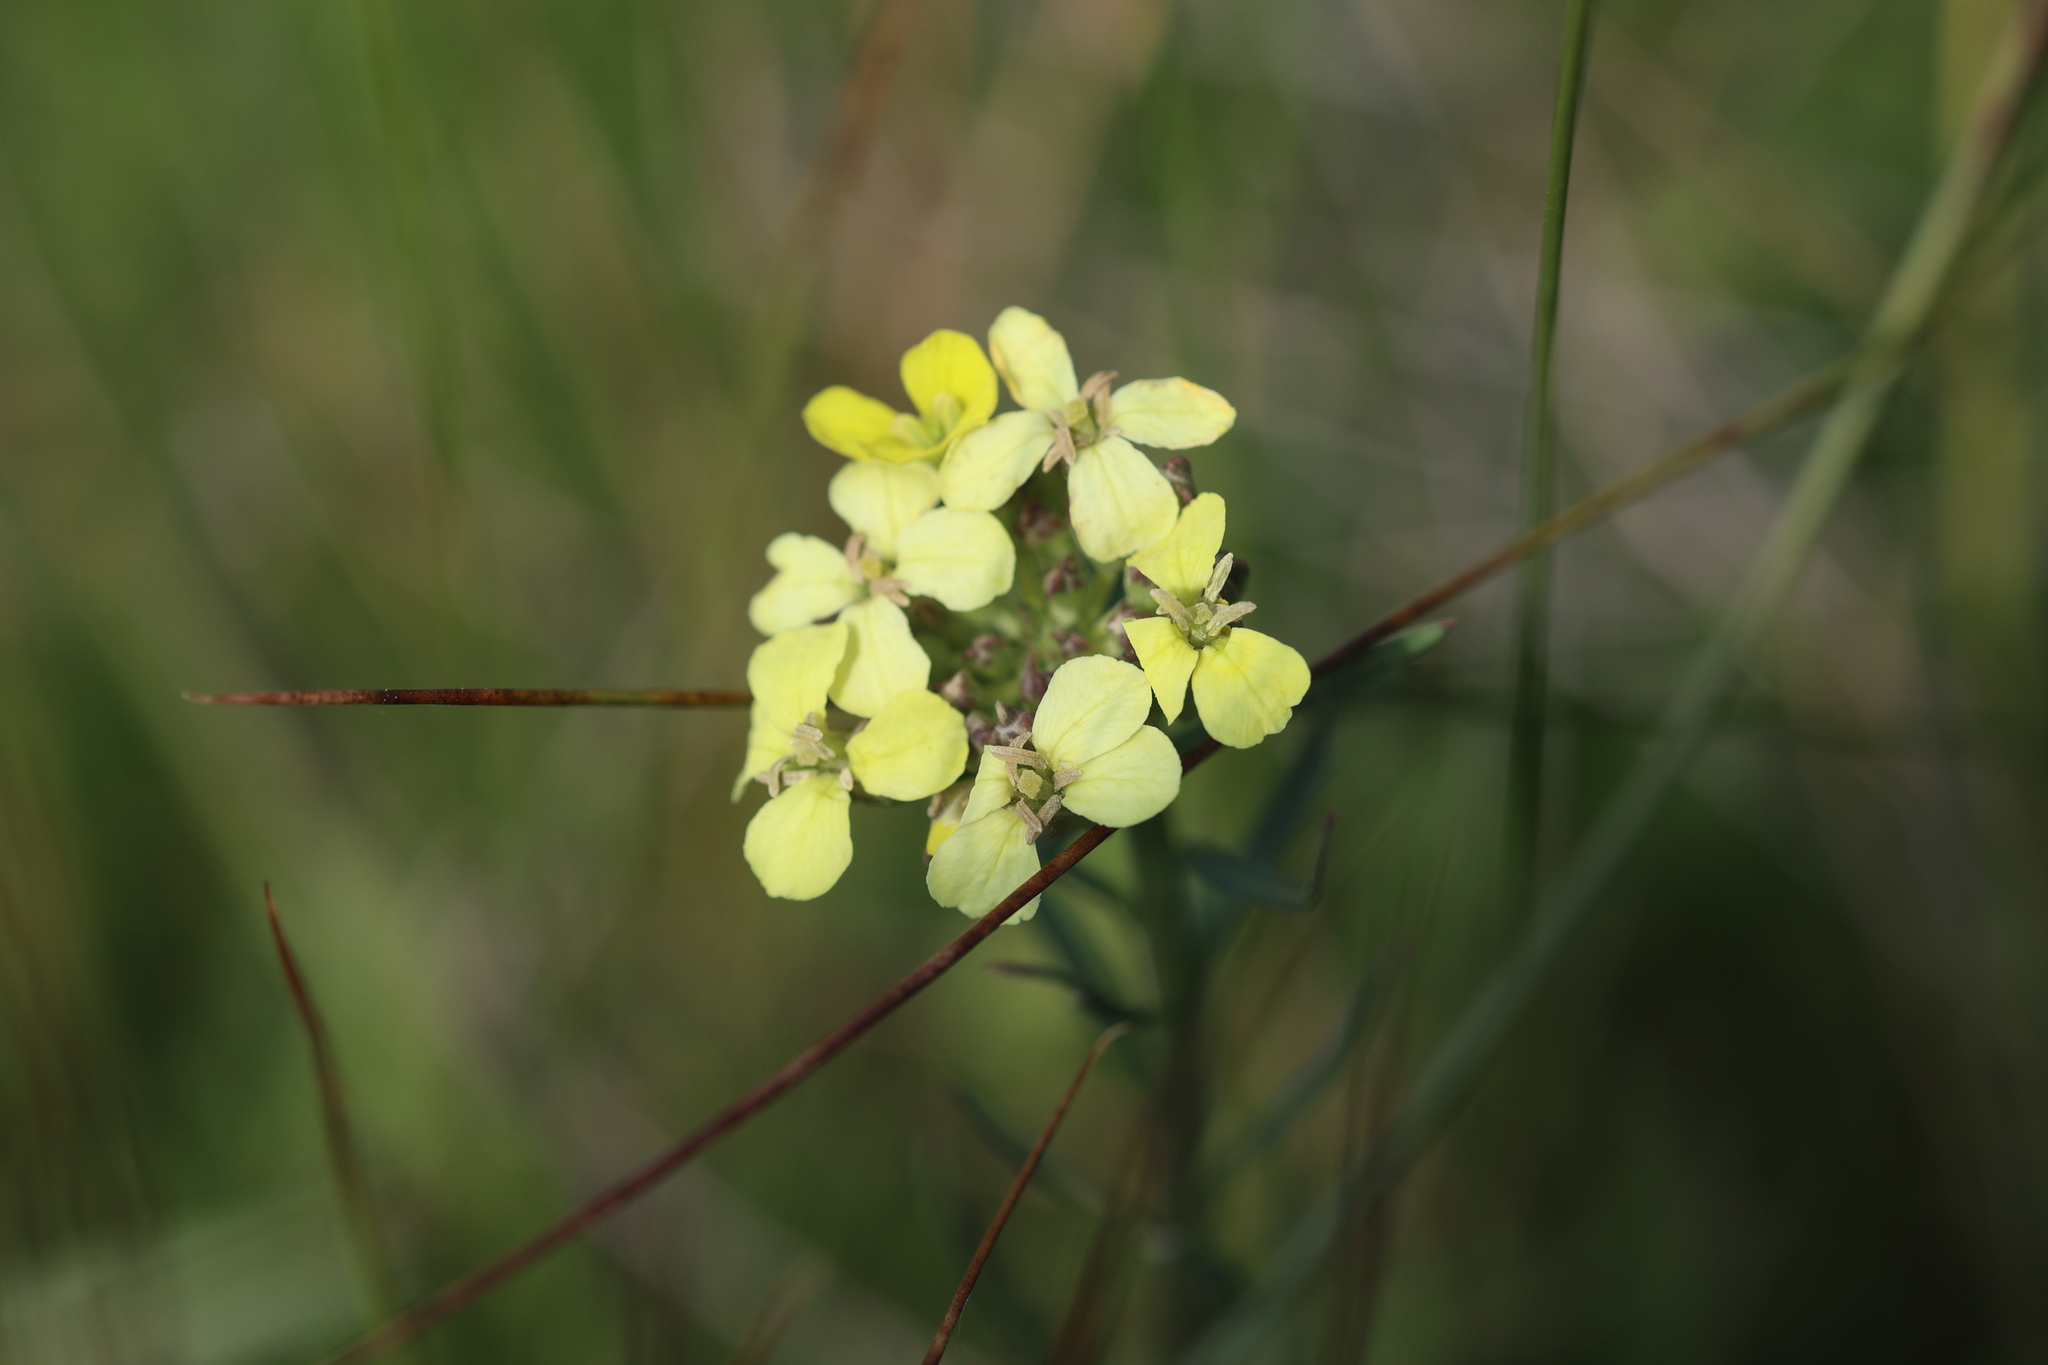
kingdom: Plantae
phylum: Tracheophyta
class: Magnoliopsida
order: Brassicales
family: Brassicaceae
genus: Erysimum
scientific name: Erysimum capitatum
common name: Western wallflower
